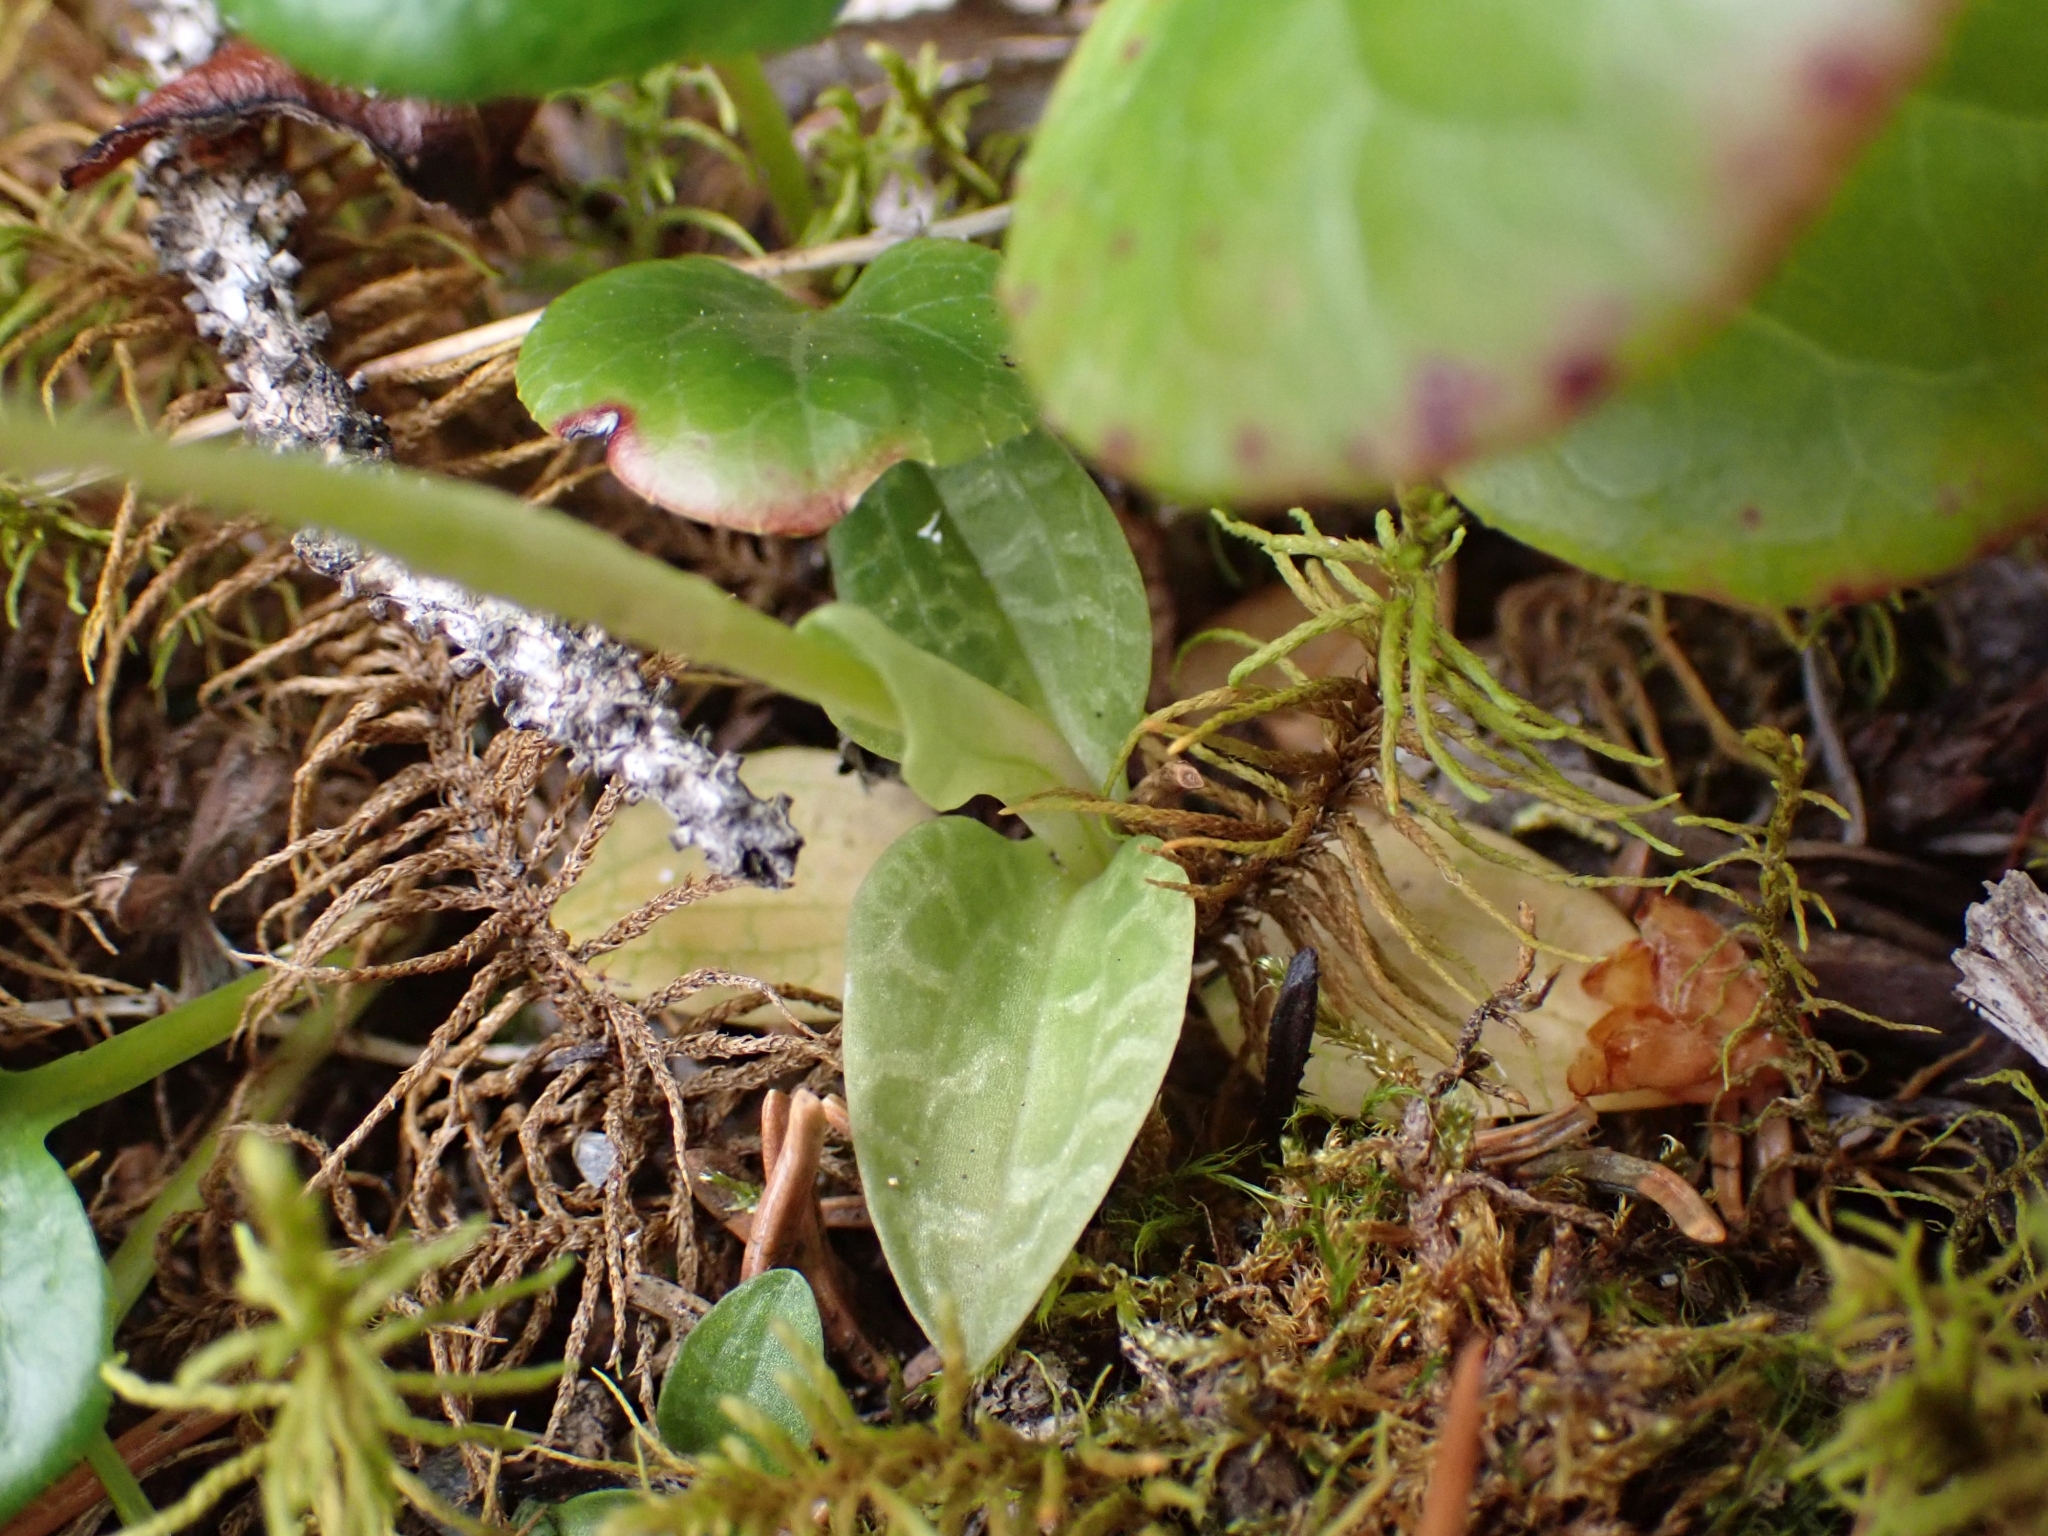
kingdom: Plantae
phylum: Tracheophyta
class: Liliopsida
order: Asparagales
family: Orchidaceae
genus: Goodyera
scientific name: Goodyera repens
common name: Creeping lady's-tresses
